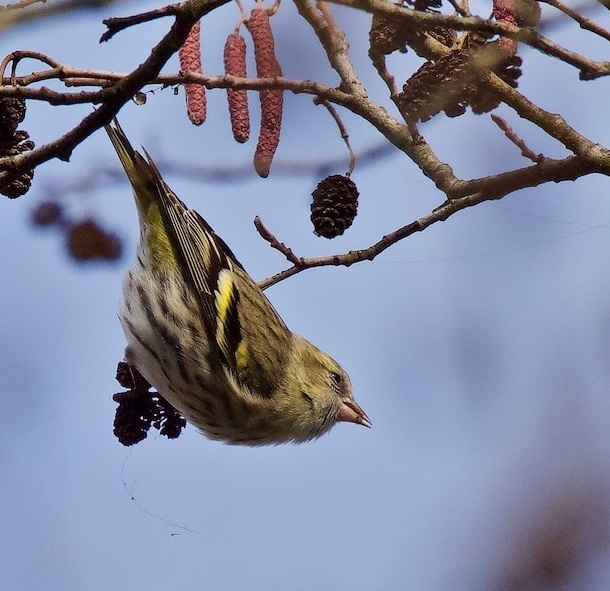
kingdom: Animalia
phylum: Chordata
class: Aves
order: Passeriformes
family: Fringillidae
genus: Spinus
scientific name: Spinus spinus
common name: Eurasian siskin
